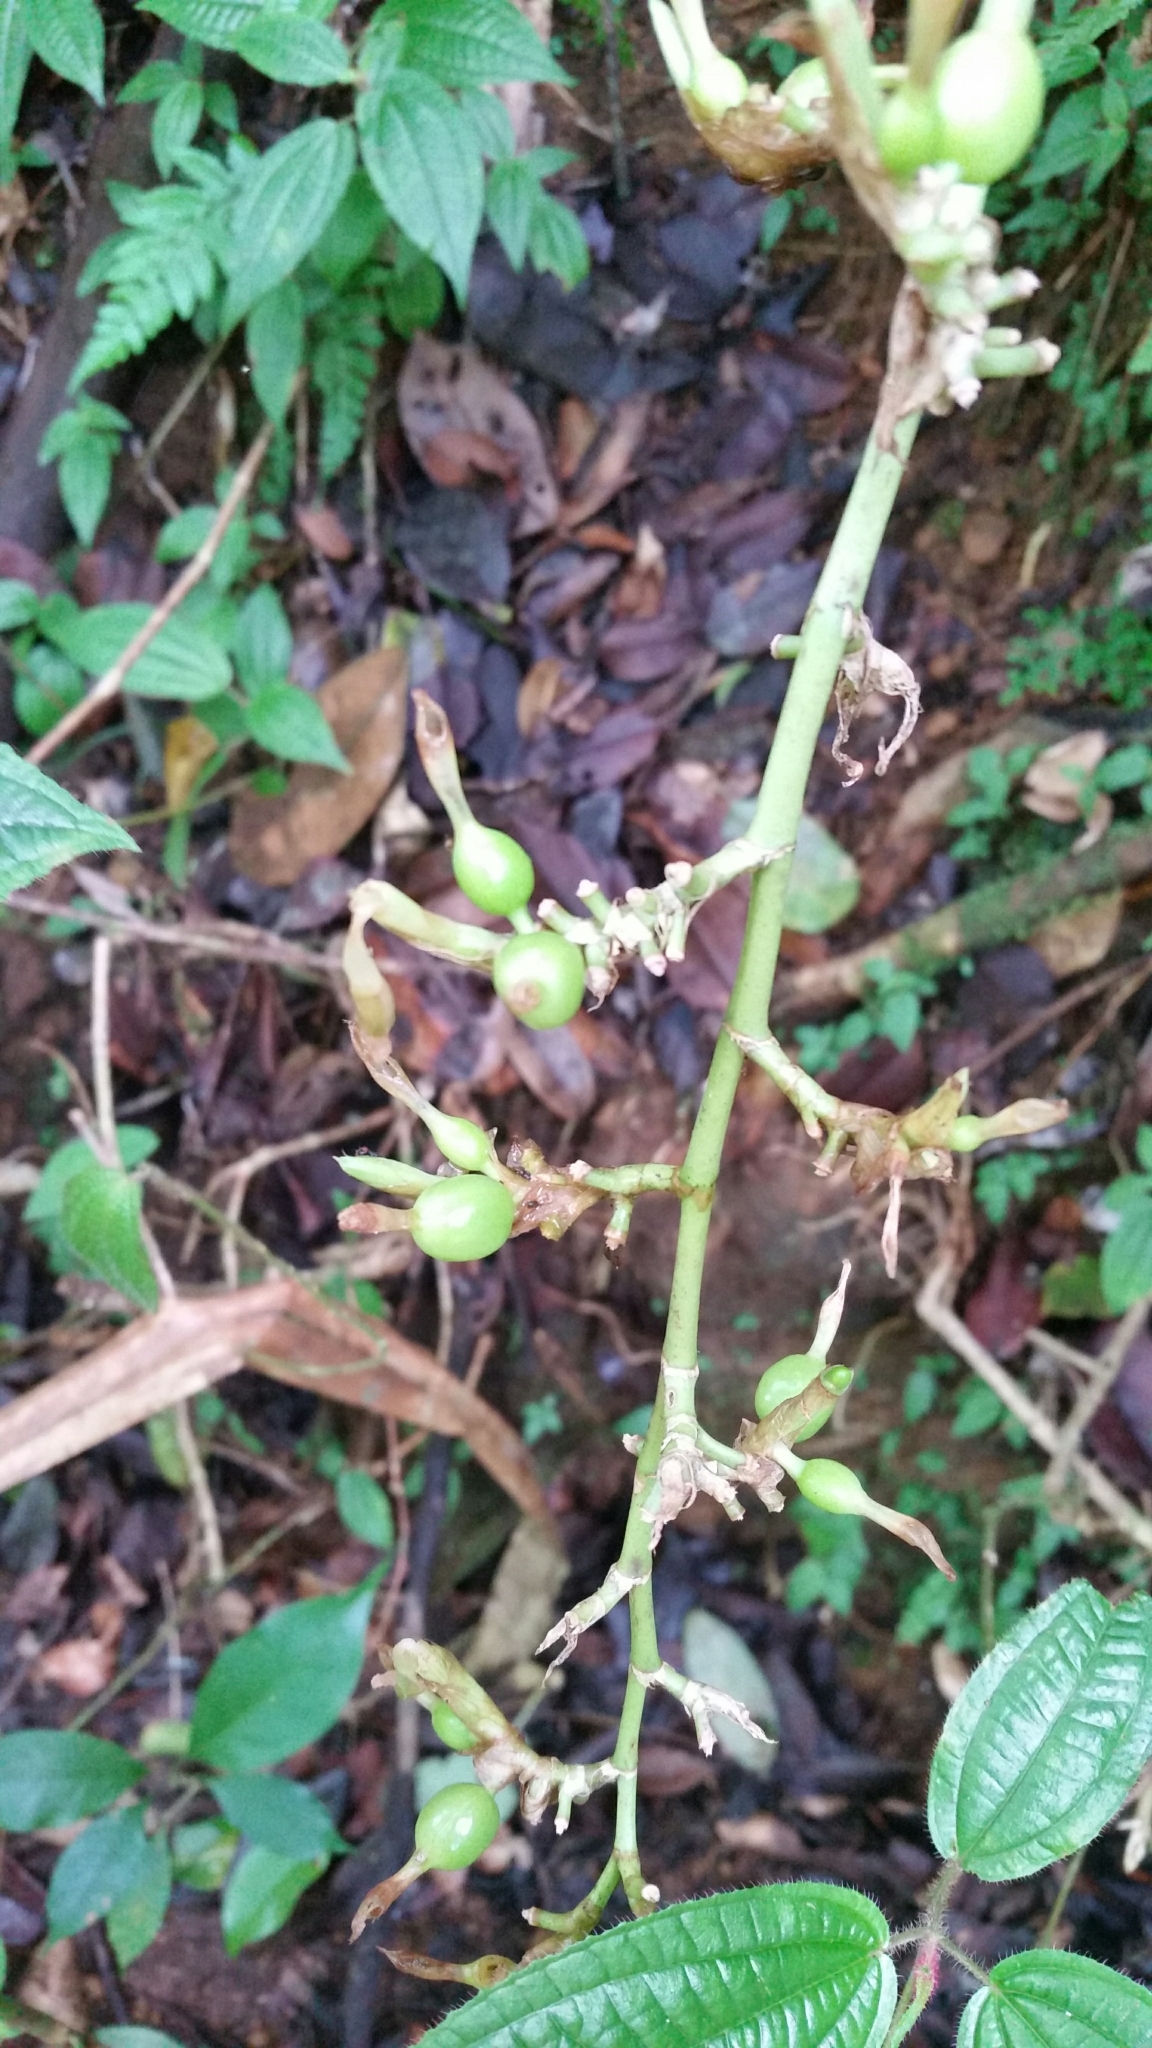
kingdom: Plantae
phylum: Tracheophyta
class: Liliopsida
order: Zingiberales
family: Zingiberaceae
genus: Elettaria
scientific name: Elettaria cardamomum
